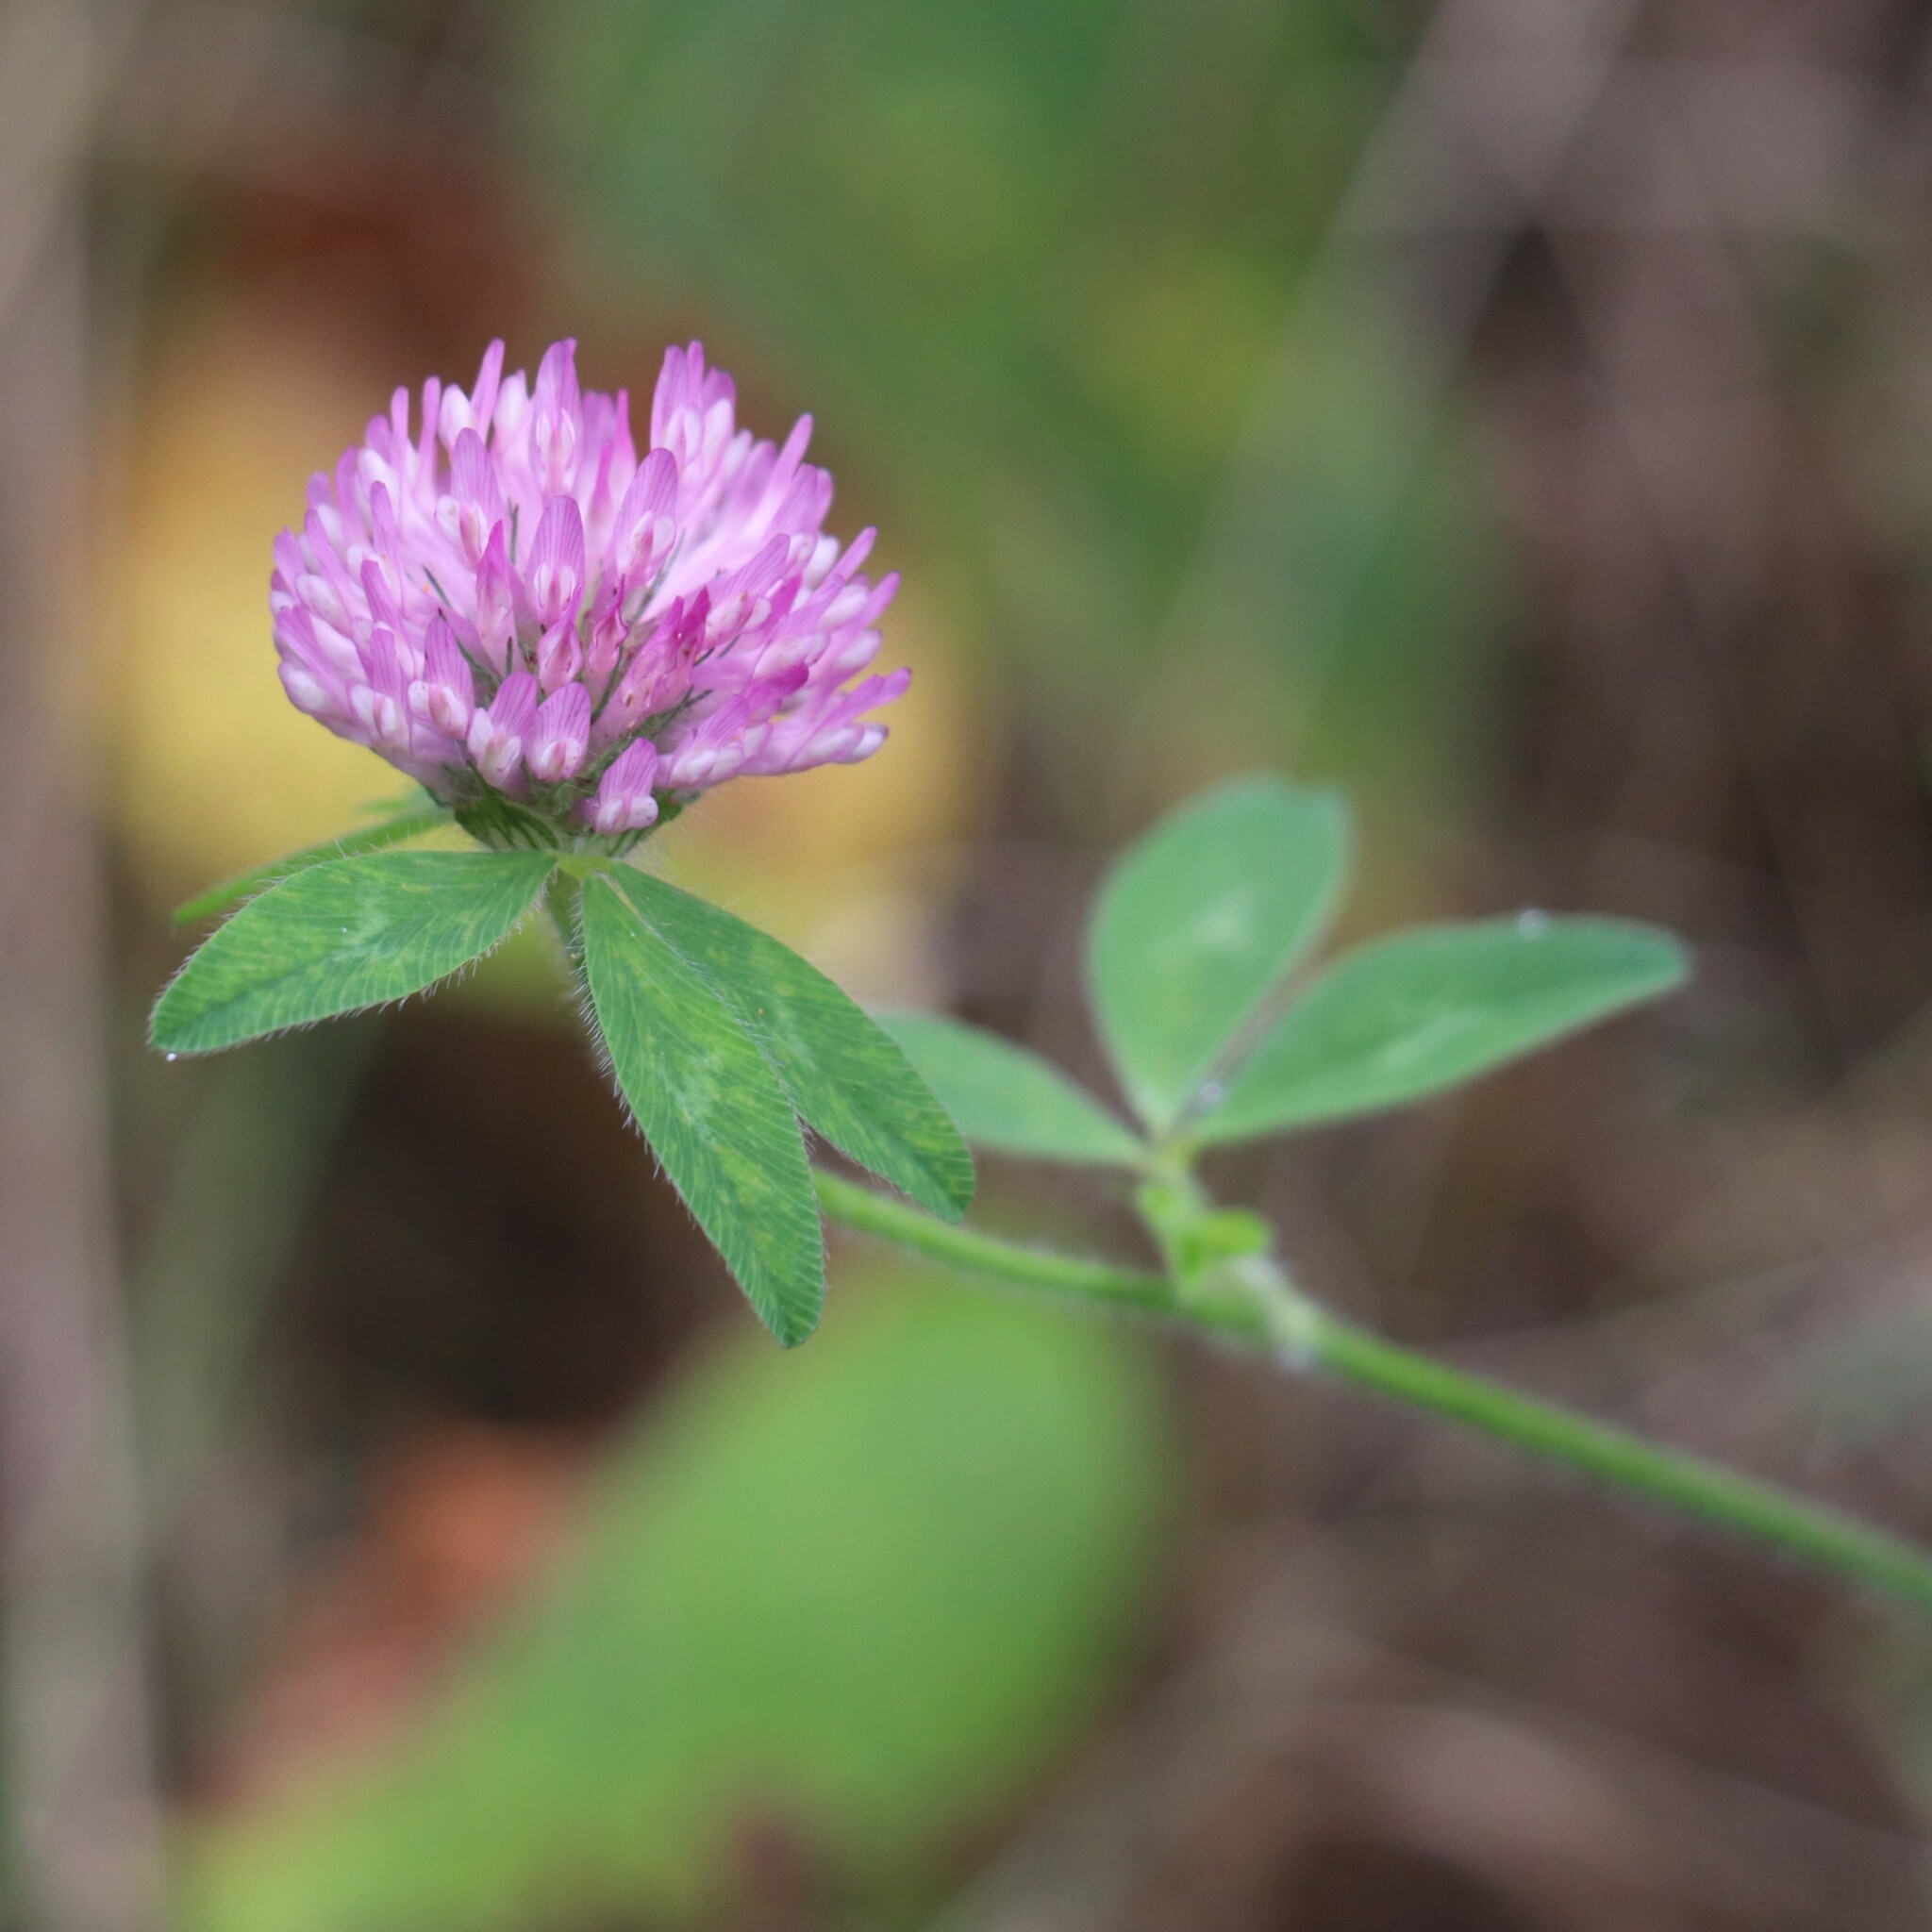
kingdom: Plantae
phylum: Tracheophyta
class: Magnoliopsida
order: Fabales
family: Fabaceae
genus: Trifolium
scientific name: Trifolium pratense
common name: Red clover
